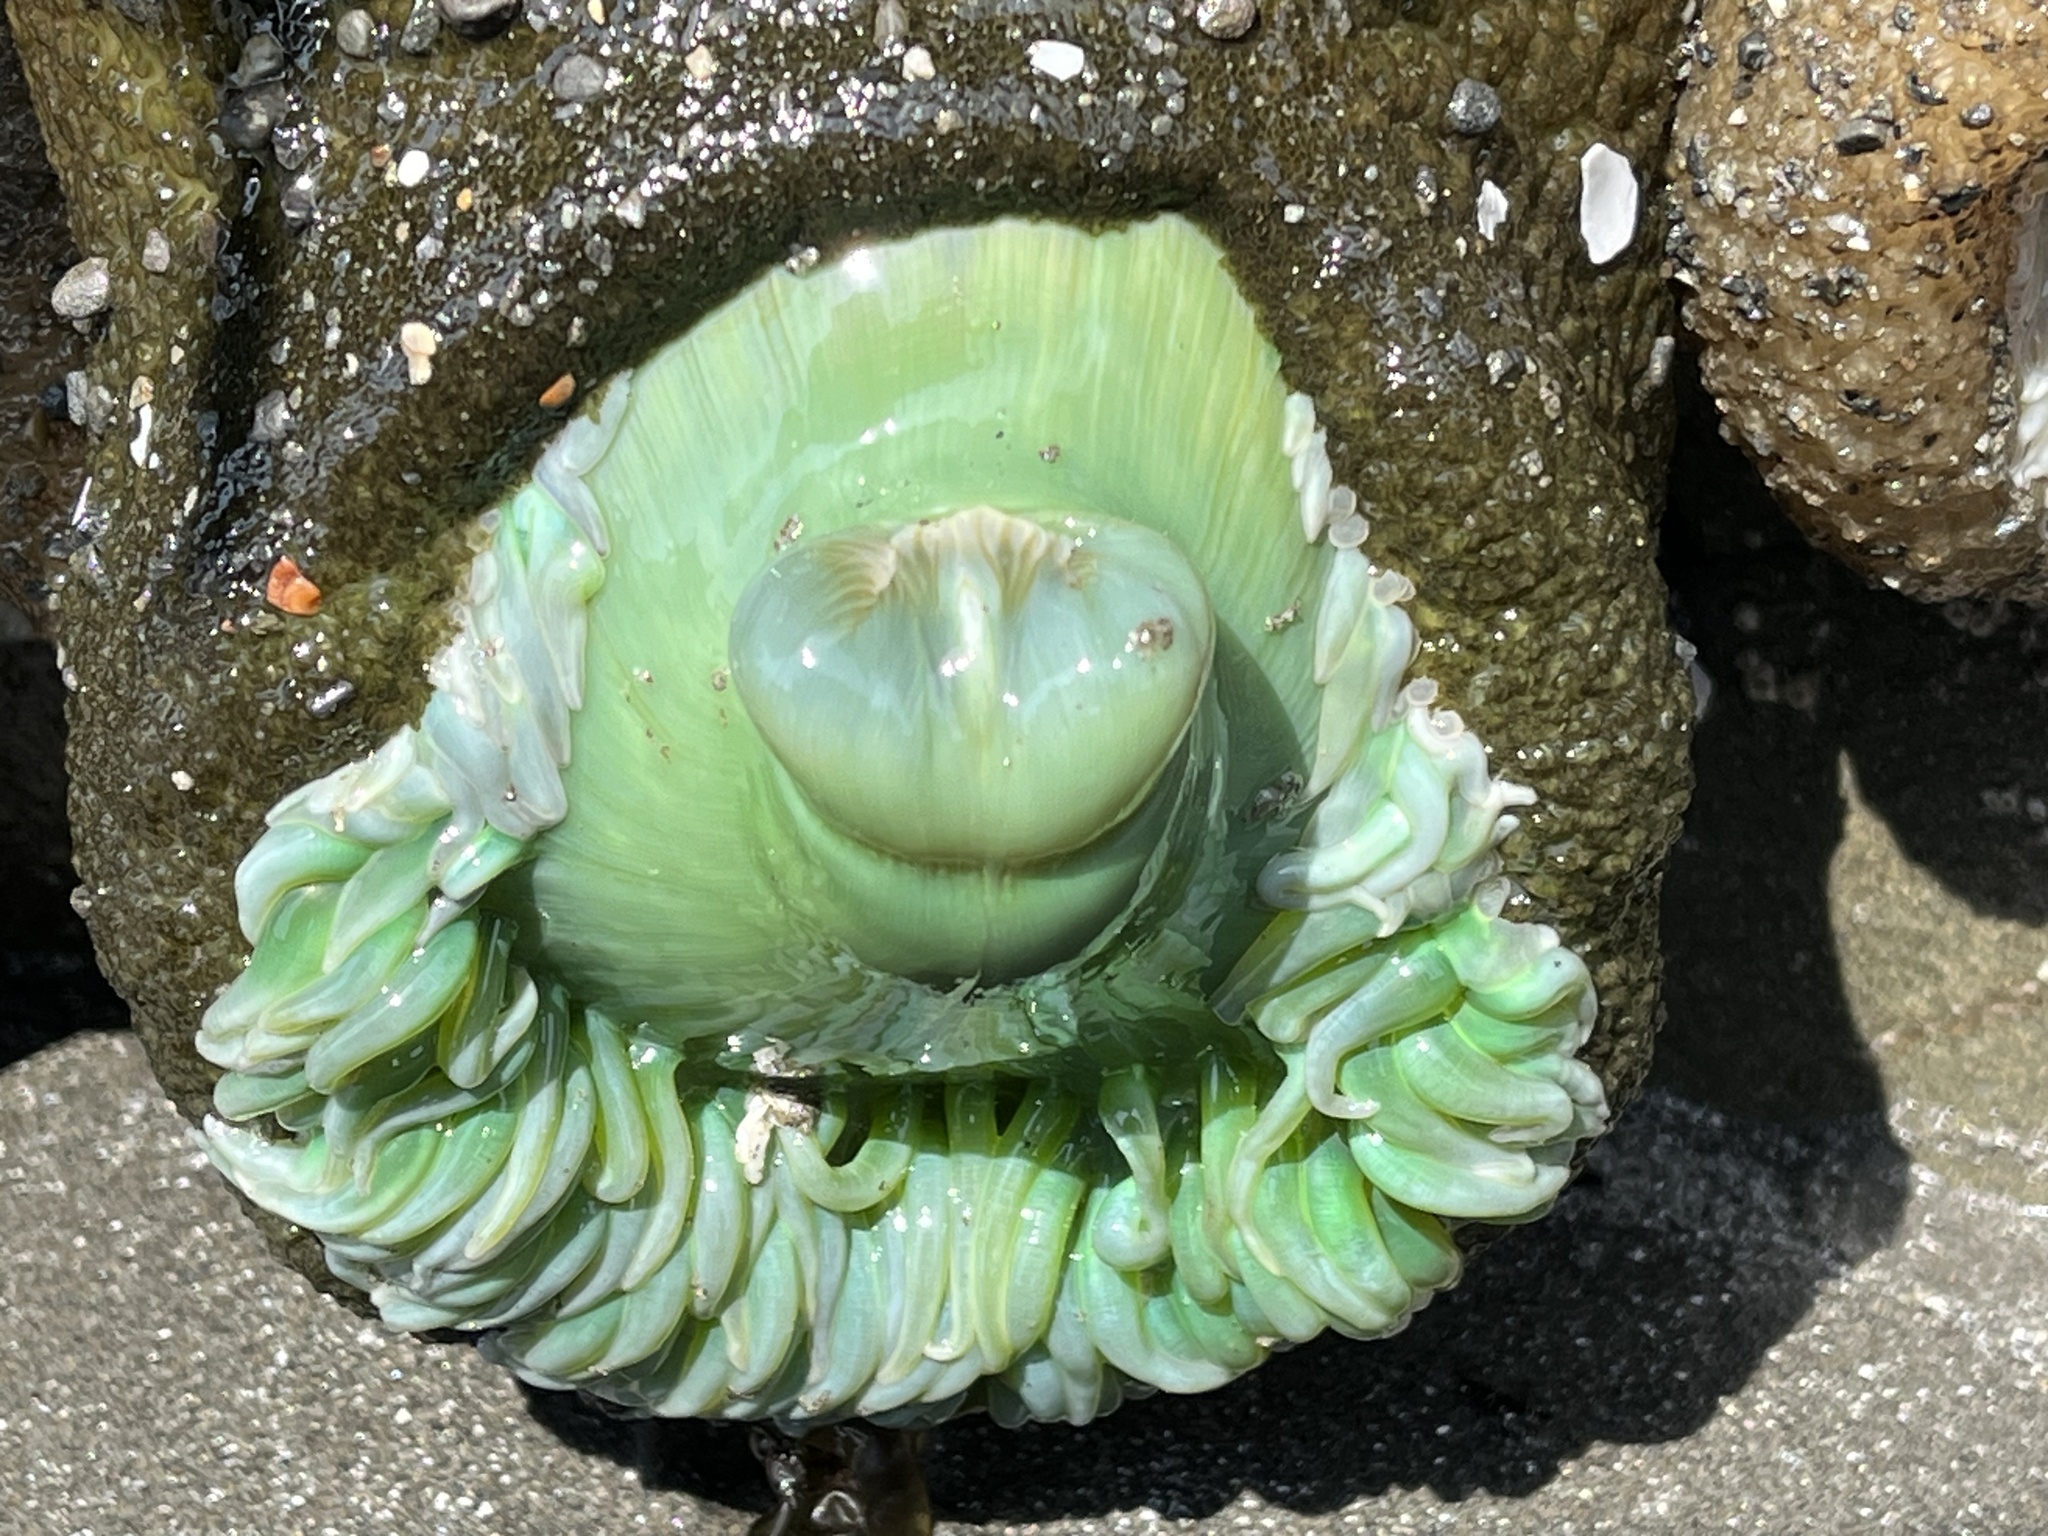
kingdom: Animalia
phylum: Cnidaria
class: Anthozoa
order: Actiniaria
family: Actiniidae
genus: Anthopleura
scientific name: Anthopleura xanthogrammica
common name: Giant green anemone
